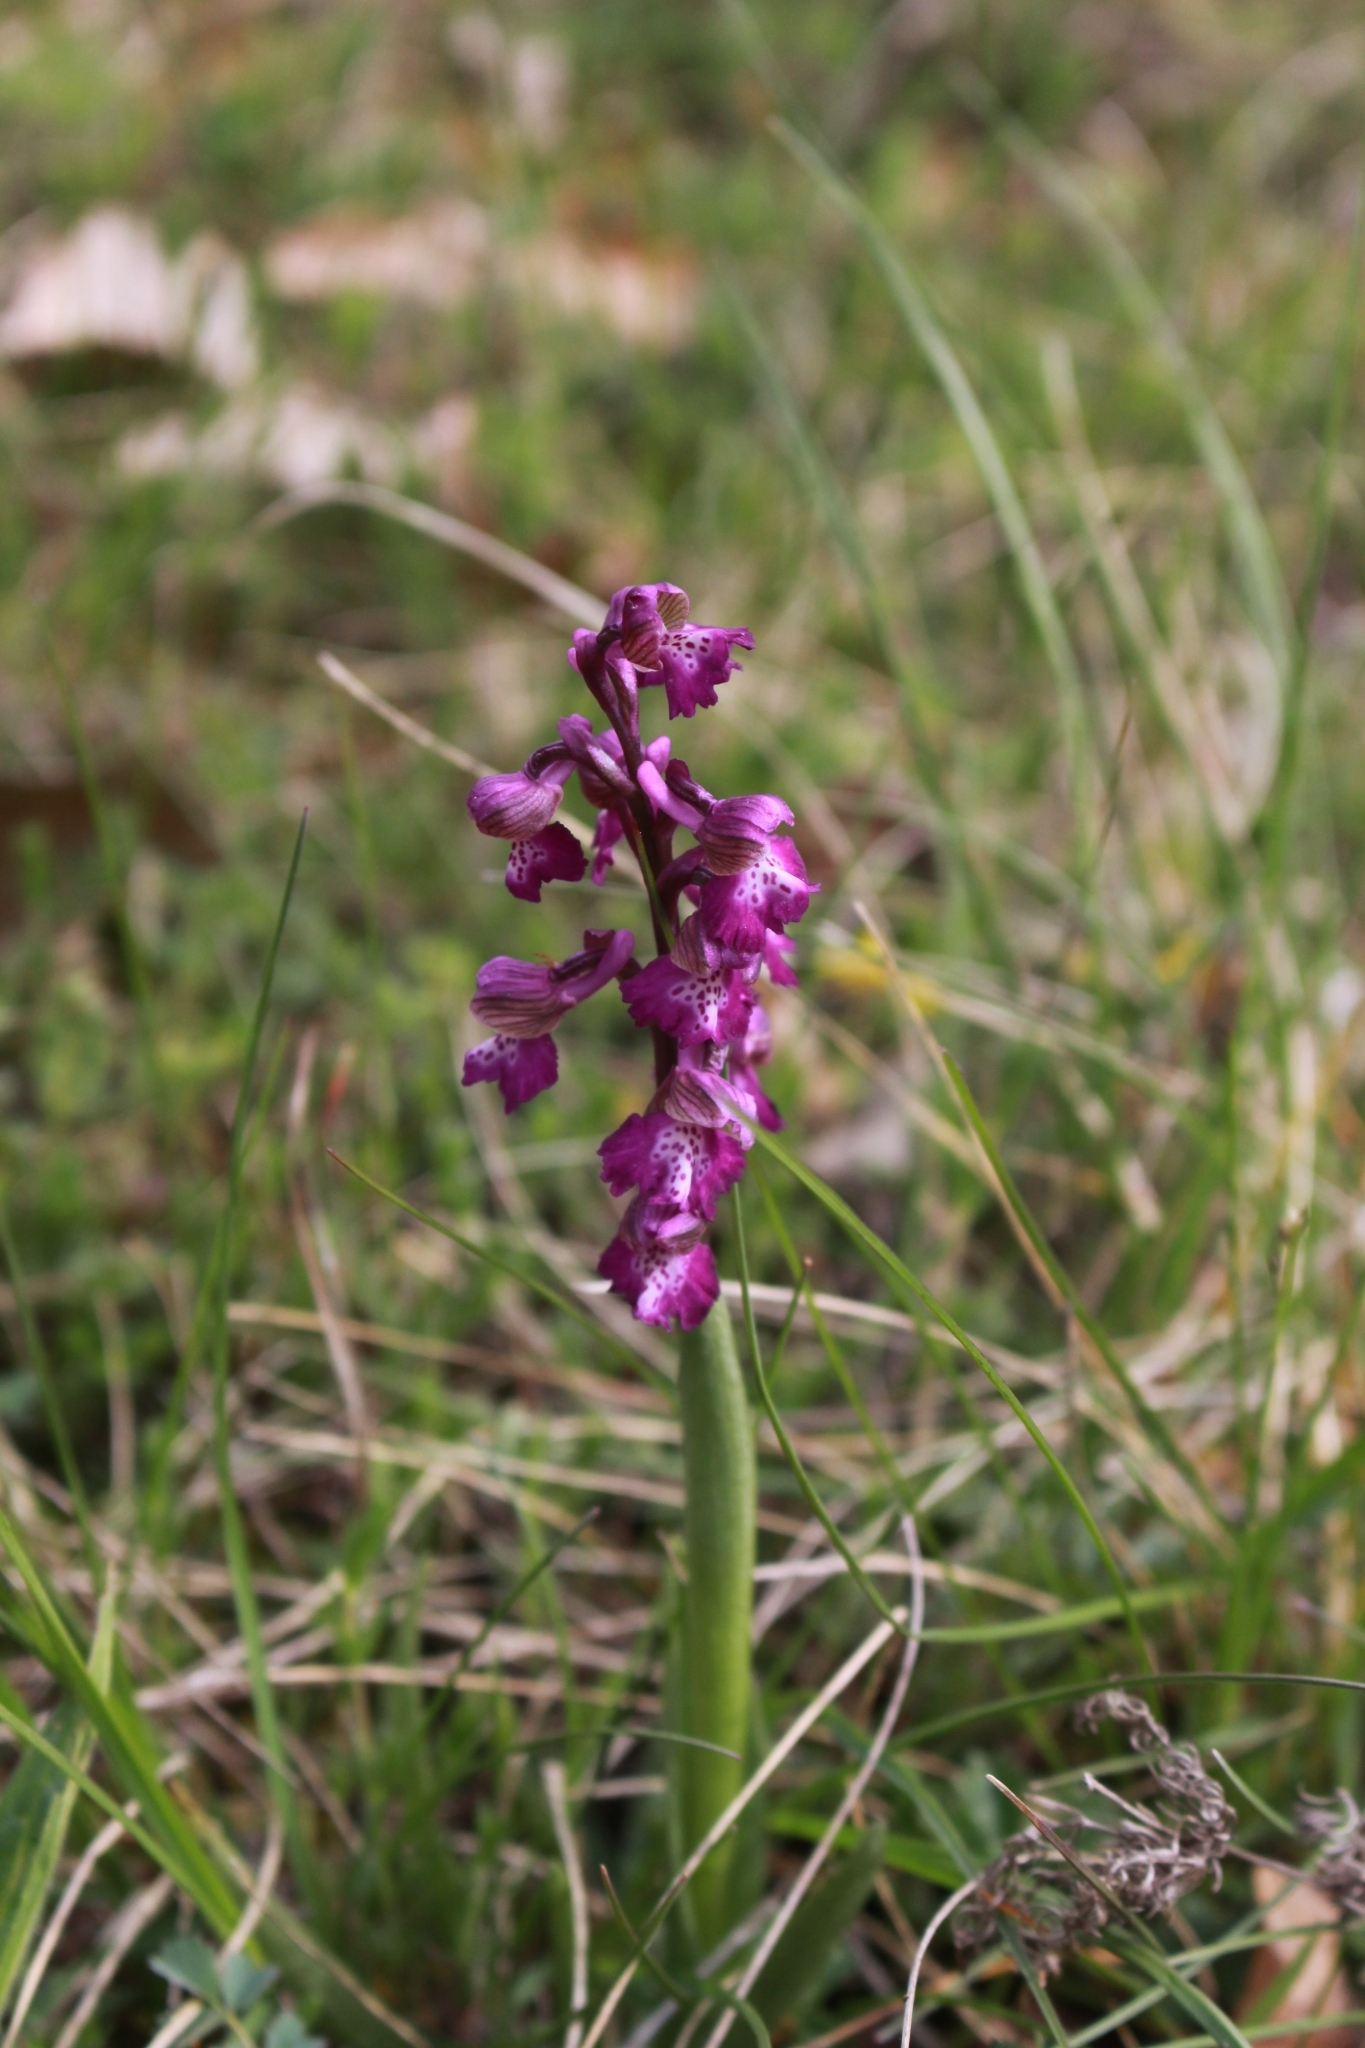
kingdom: Plantae
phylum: Tracheophyta
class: Liliopsida
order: Asparagales
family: Orchidaceae
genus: Anacamptis
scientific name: Anacamptis morio
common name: Green-winged orchid
